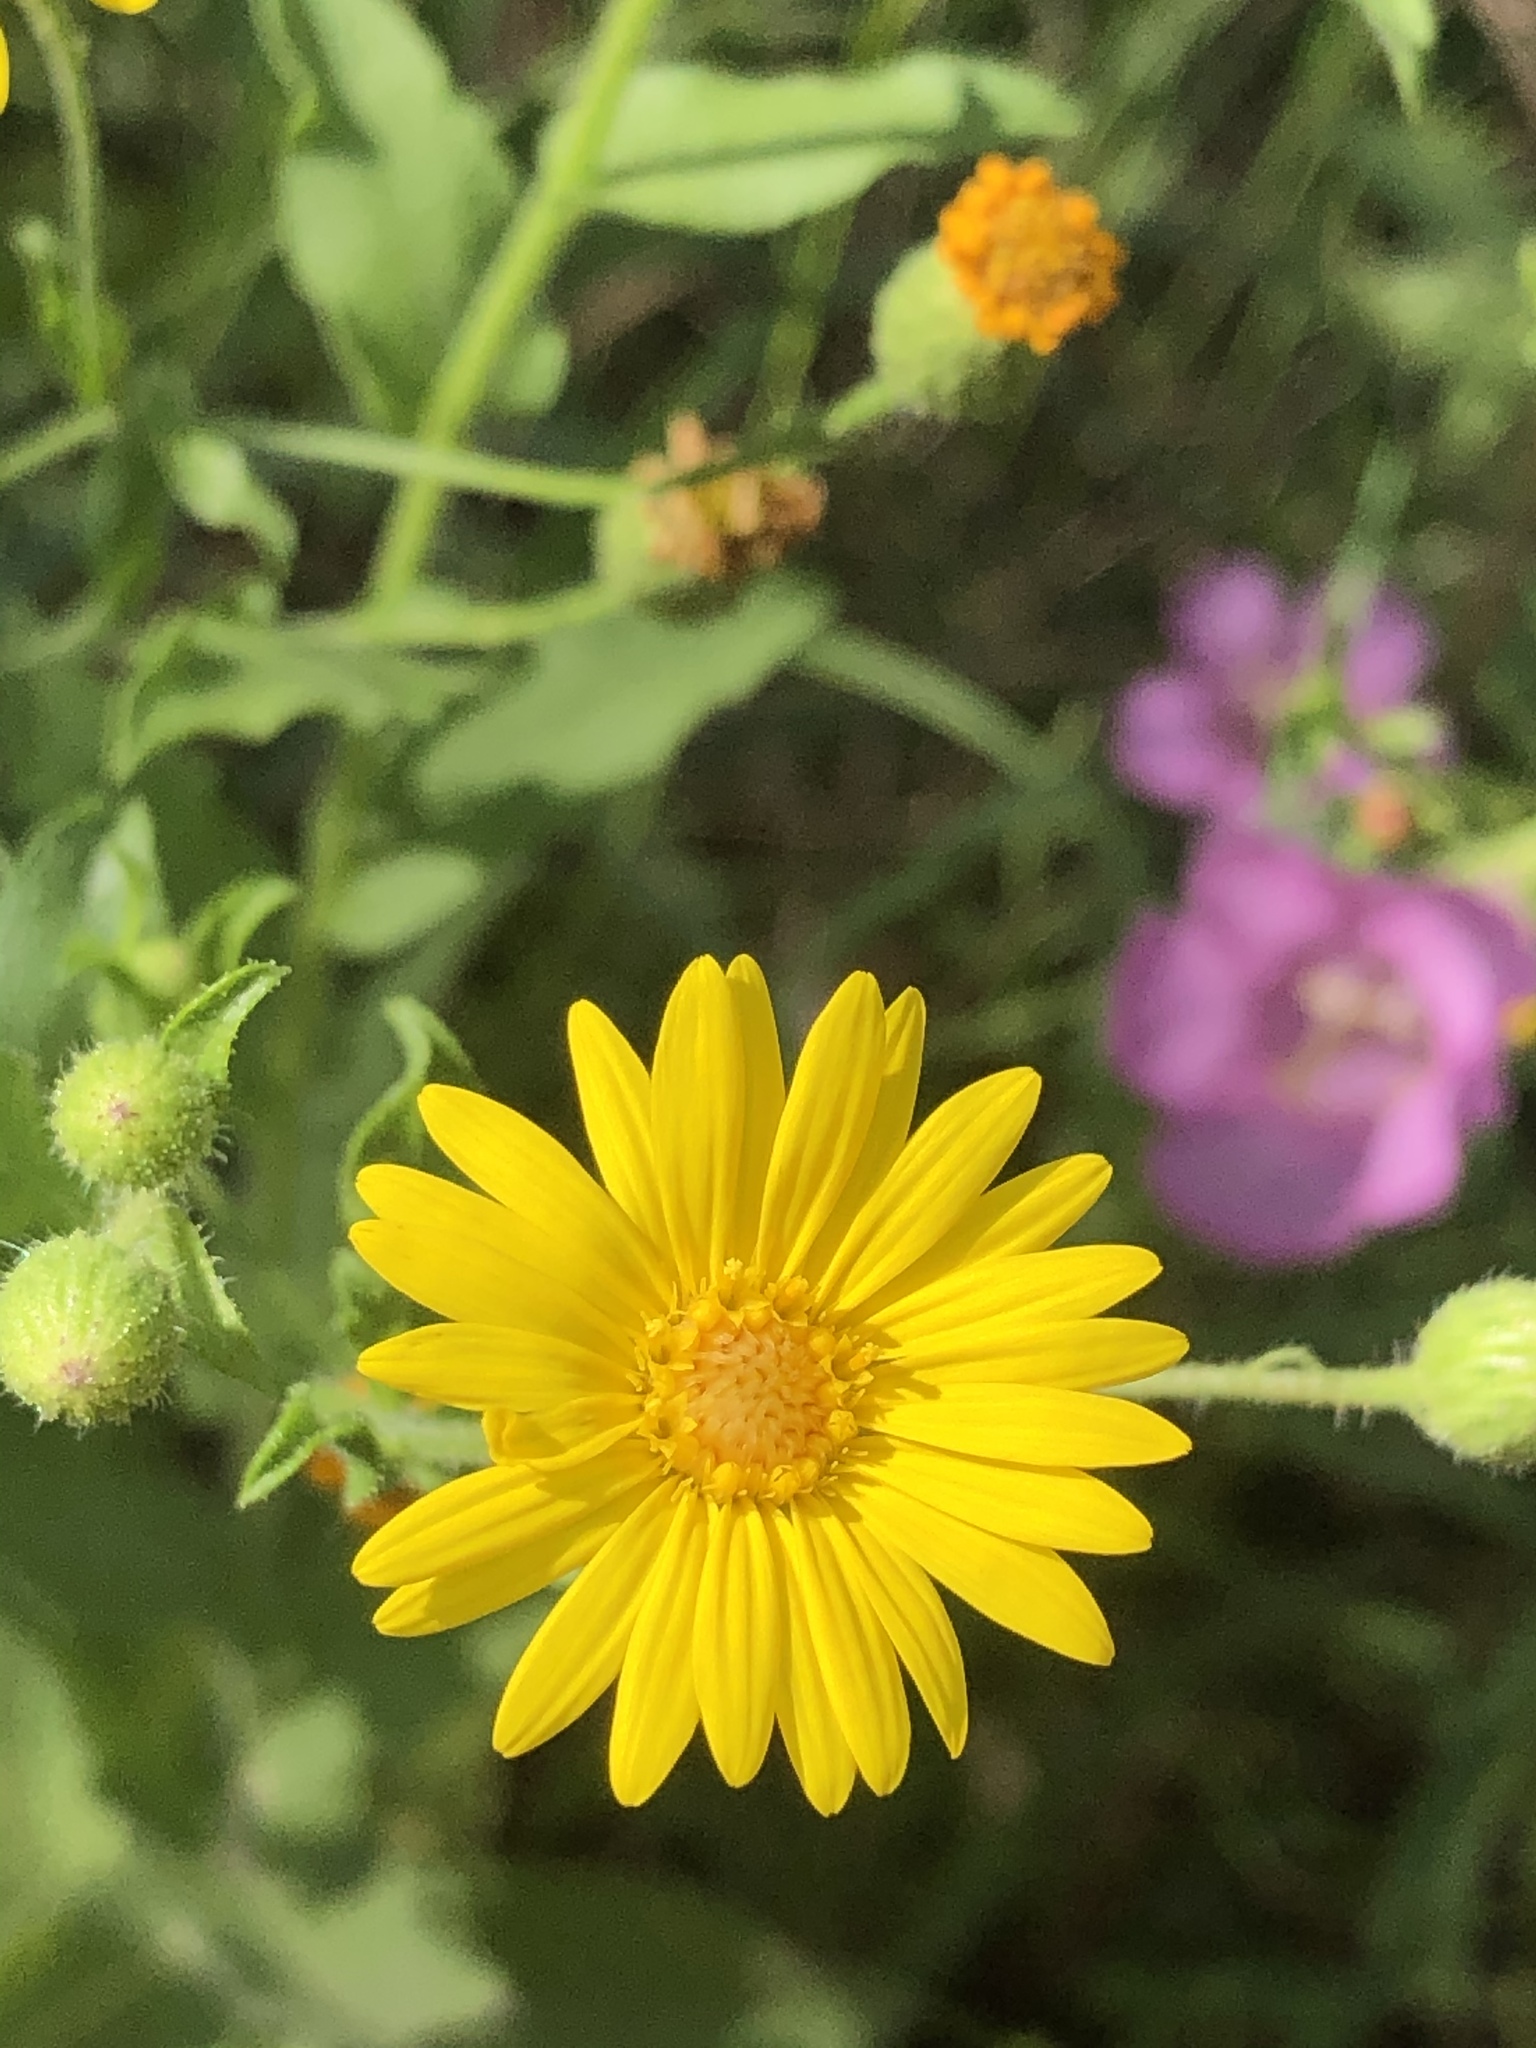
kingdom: Plantae
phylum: Tracheophyta
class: Magnoliopsida
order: Asterales
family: Asteraceae
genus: Heterotheca
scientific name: Heterotheca subaxillaris
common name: Camphorweed
